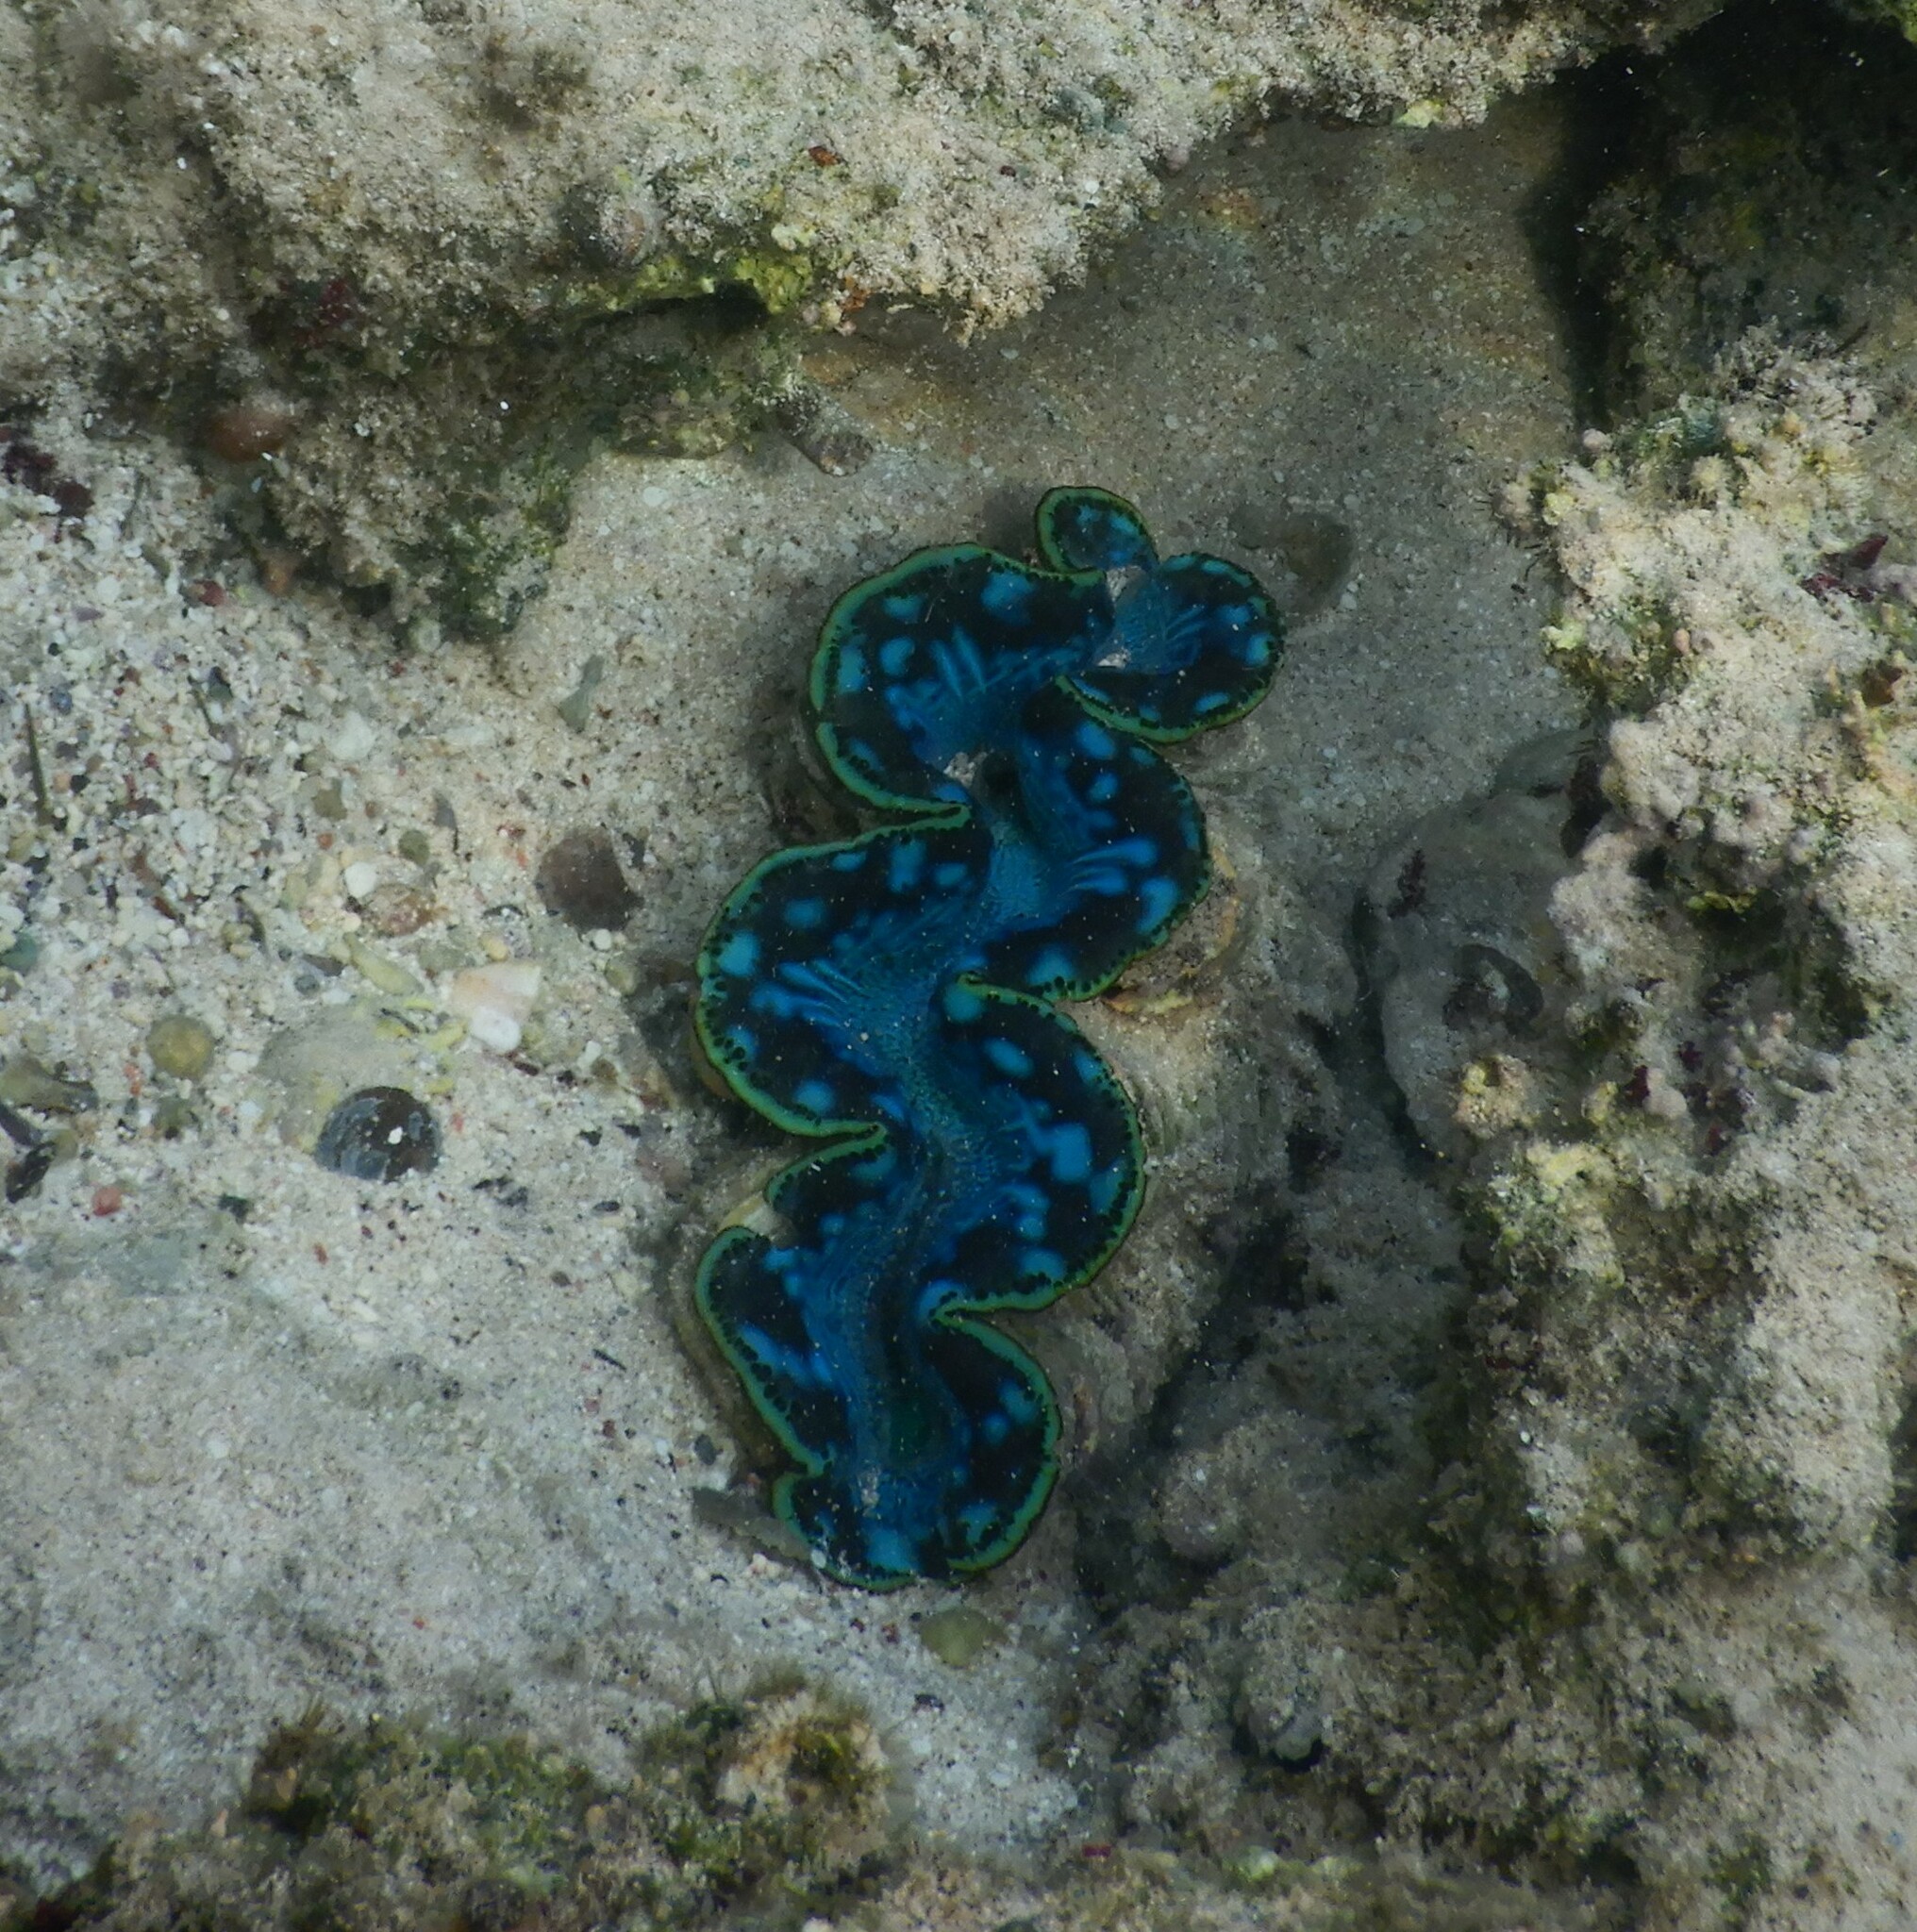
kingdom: Animalia
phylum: Mollusca
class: Bivalvia
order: Cardiida
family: Cardiidae
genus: Tridacna
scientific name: Tridacna maxima
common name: Small giant clam
